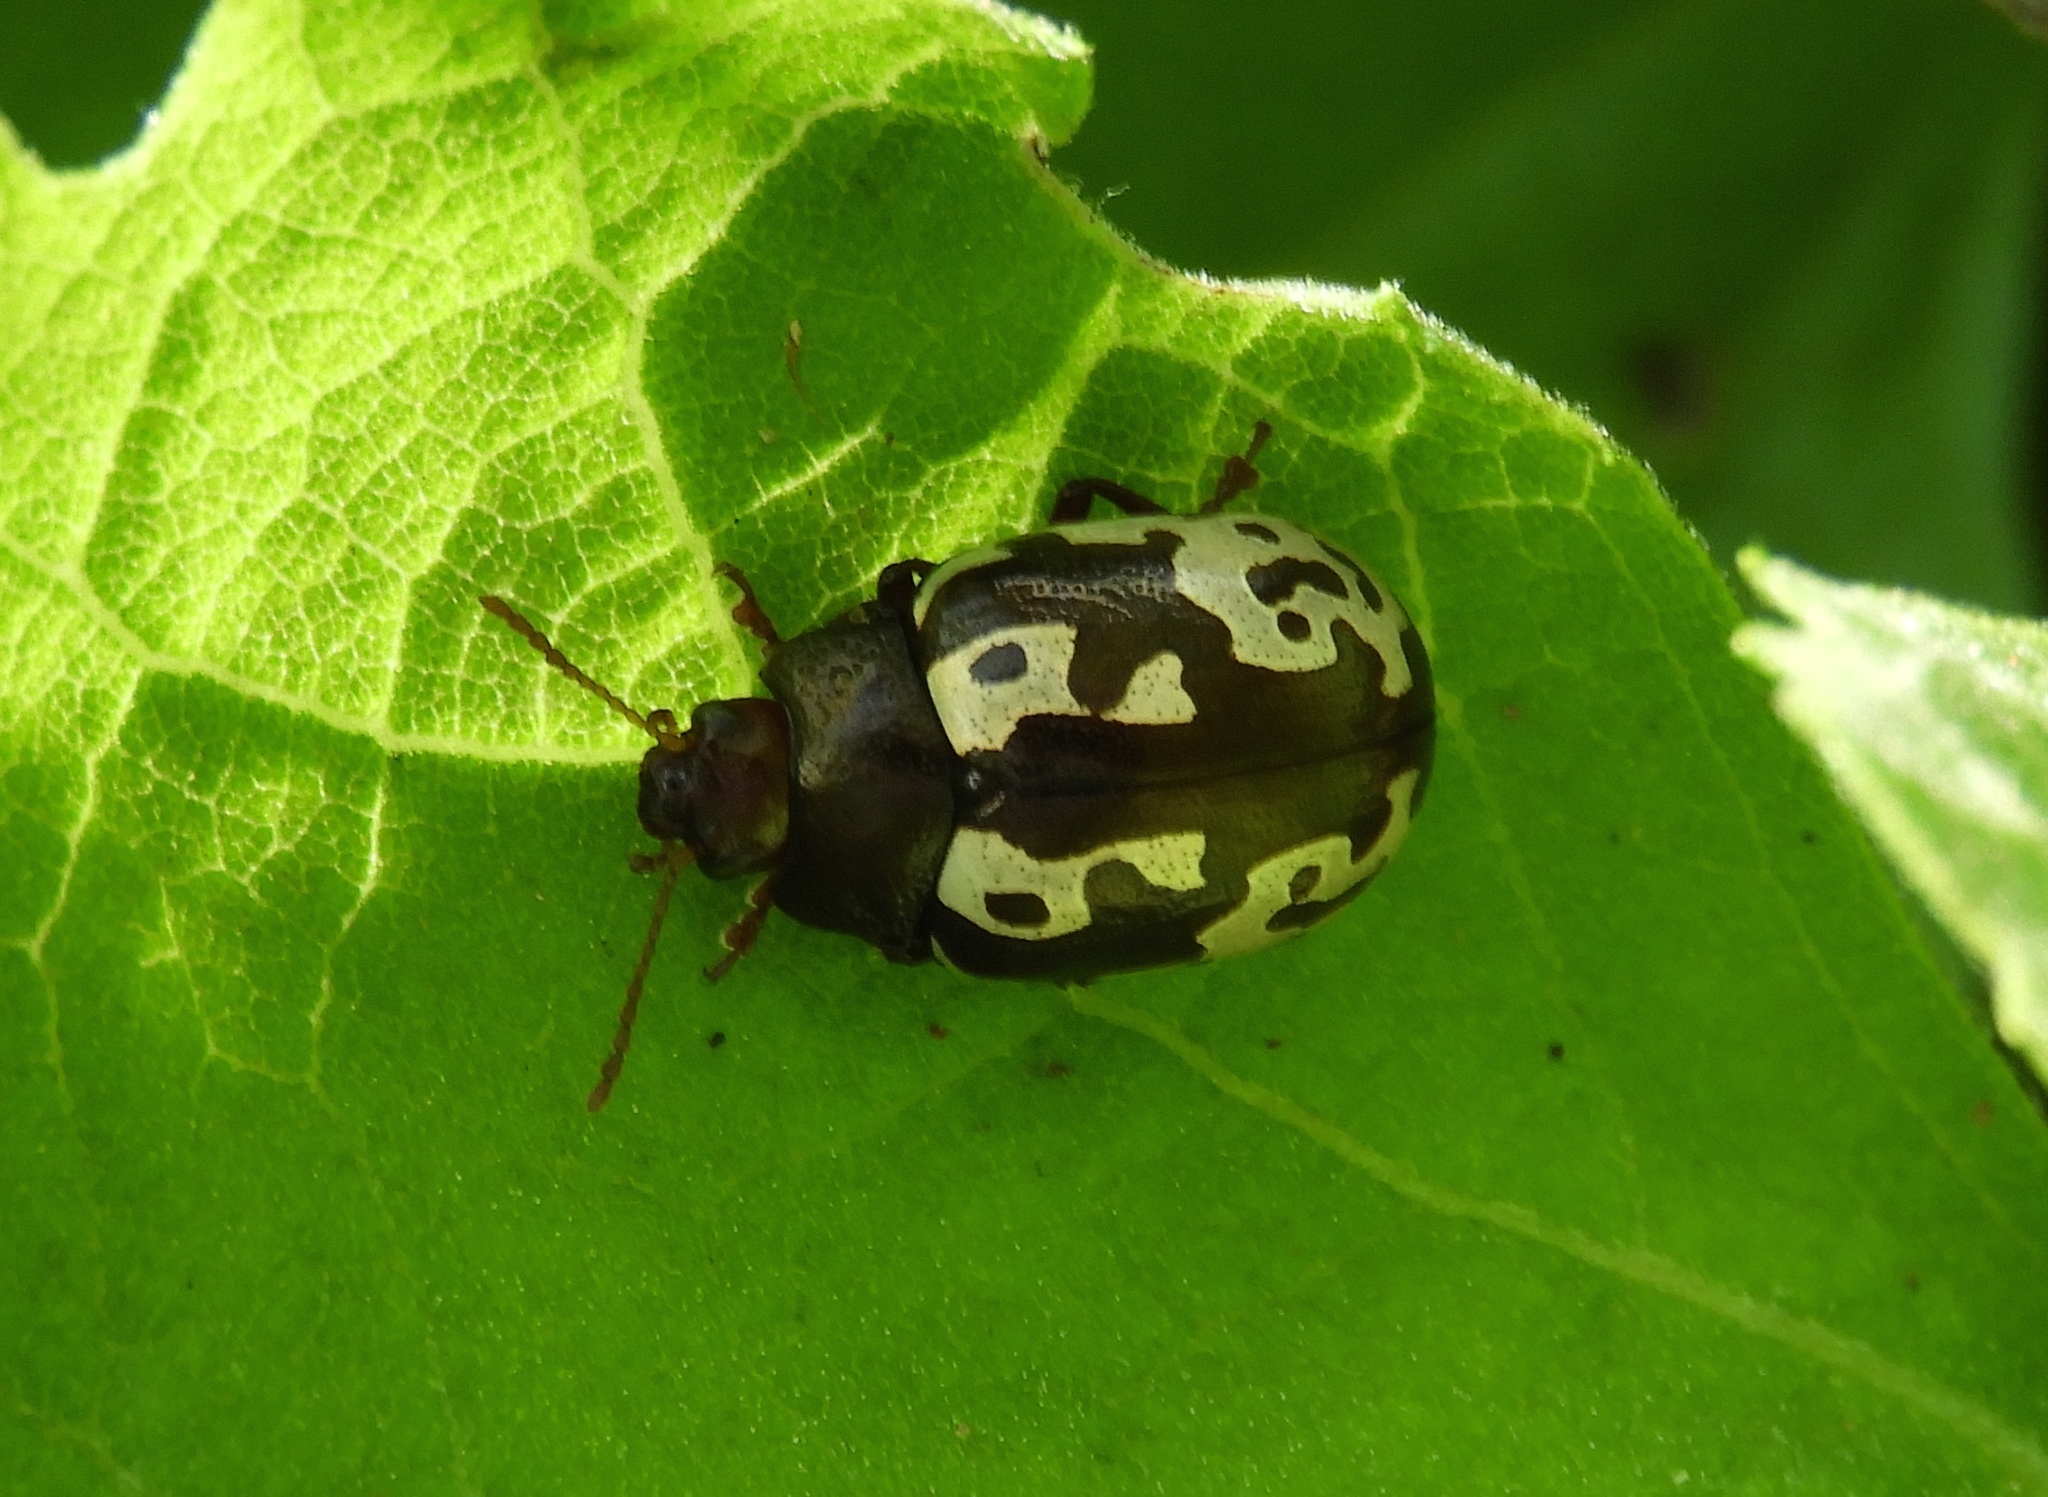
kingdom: Animalia
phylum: Arthropoda
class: Insecta
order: Coleoptera
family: Chrysomelidae
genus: Calligrapha
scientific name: Calligrapha intermedia
